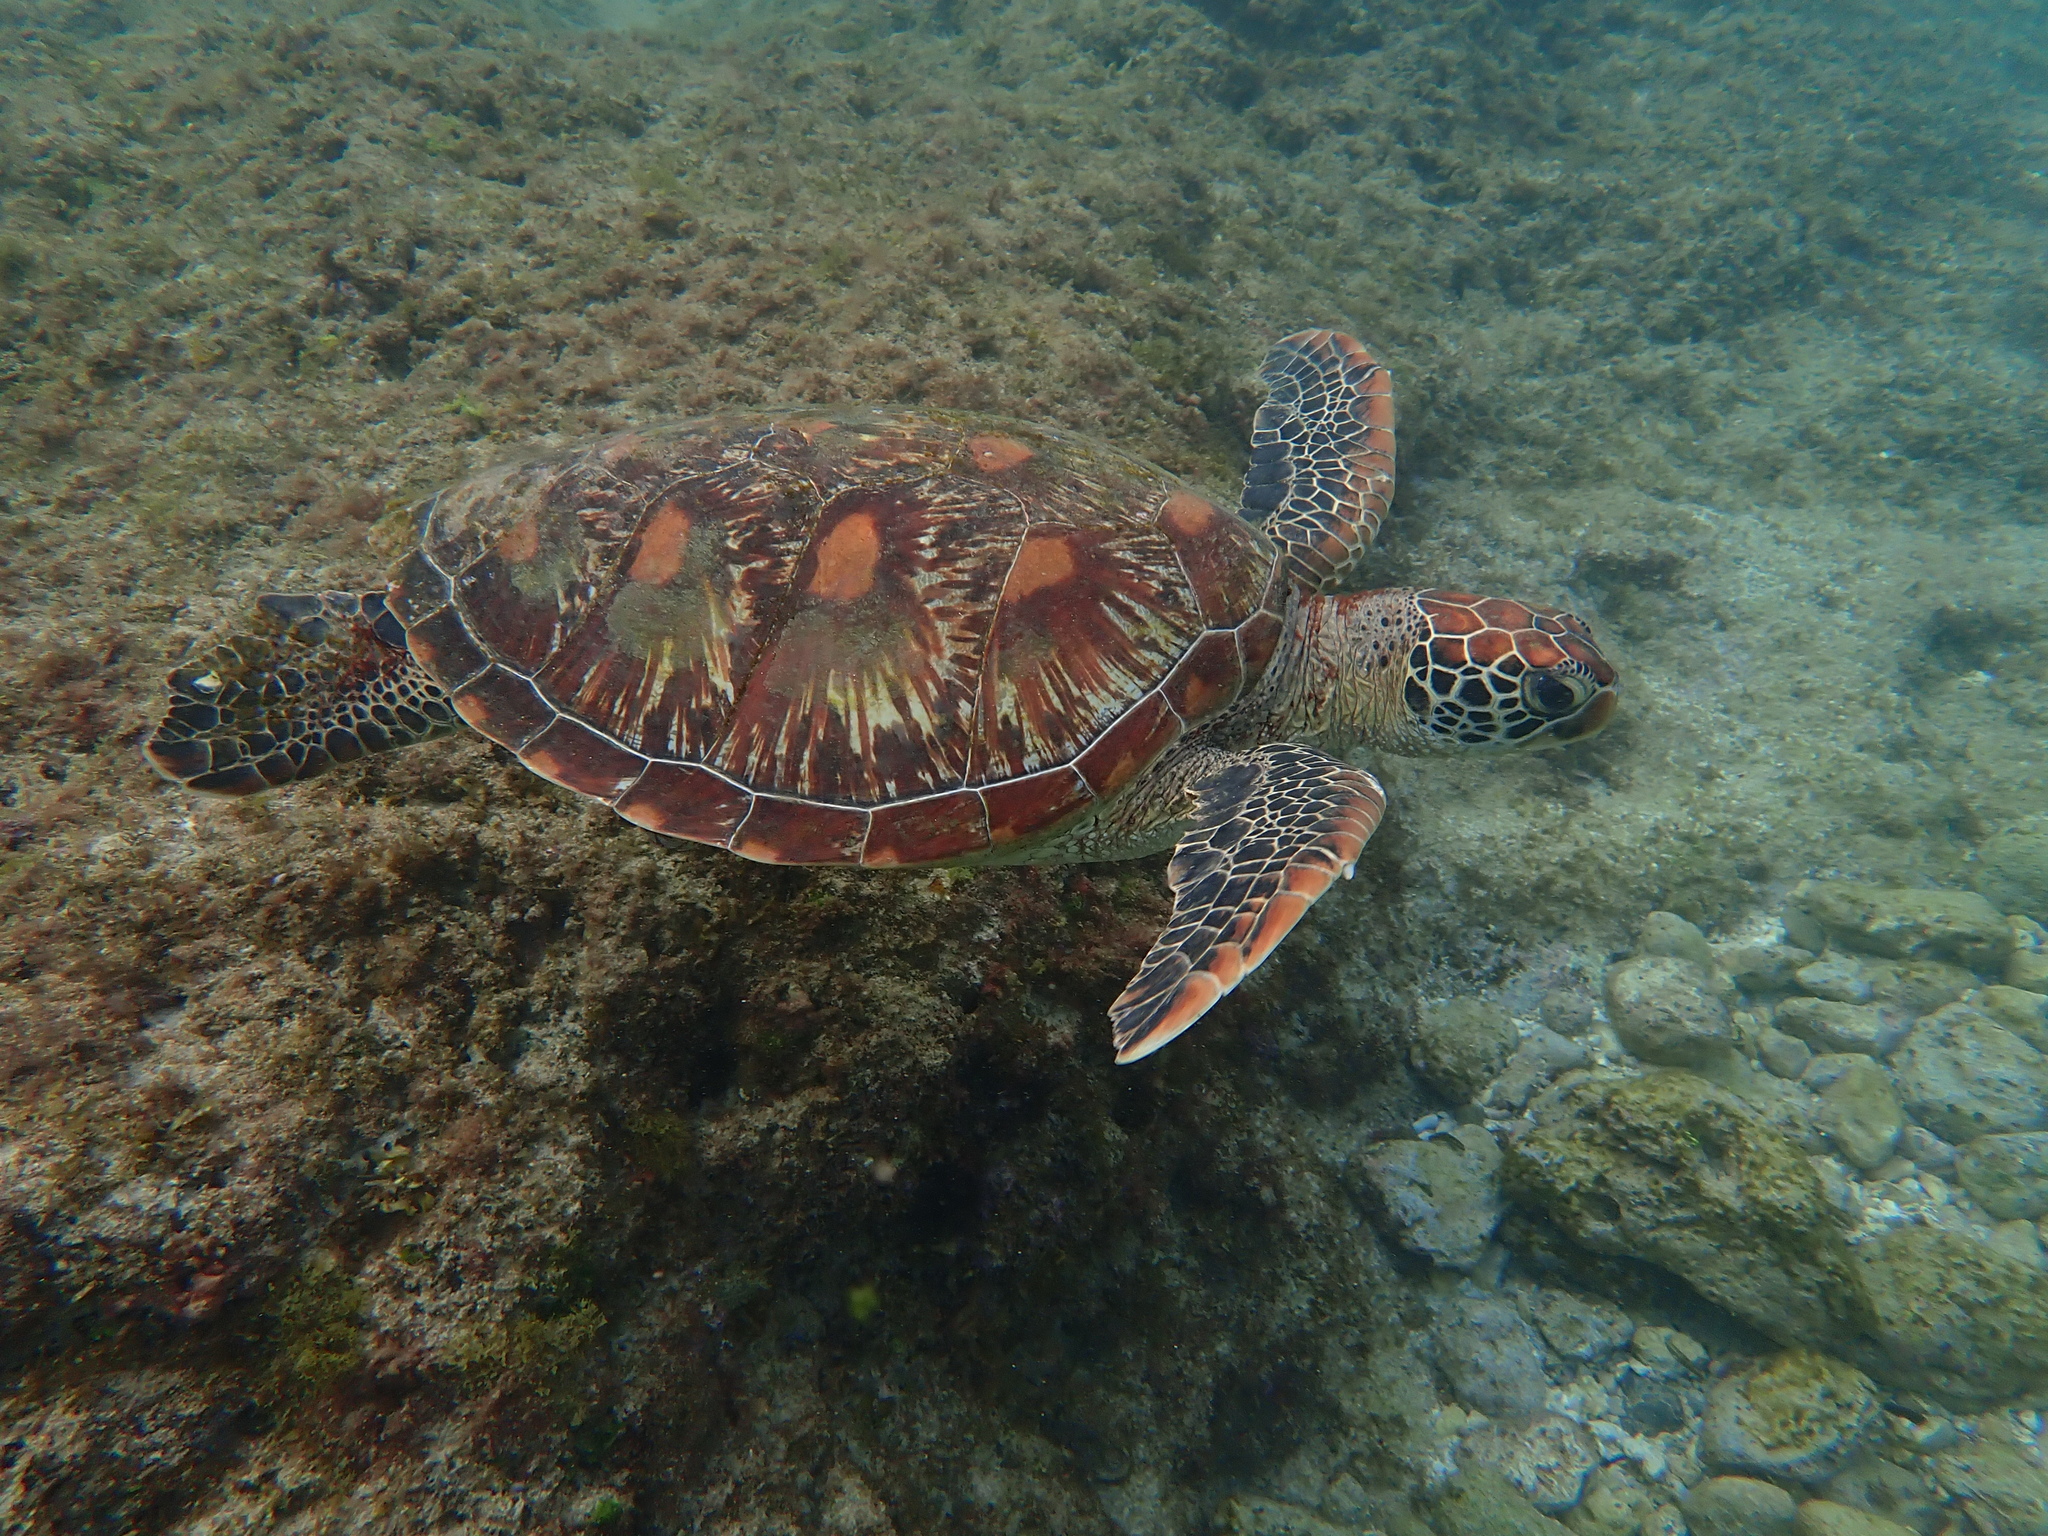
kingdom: Animalia
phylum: Chordata
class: Testudines
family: Cheloniidae
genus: Chelonia
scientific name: Chelonia mydas
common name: Green turtle
